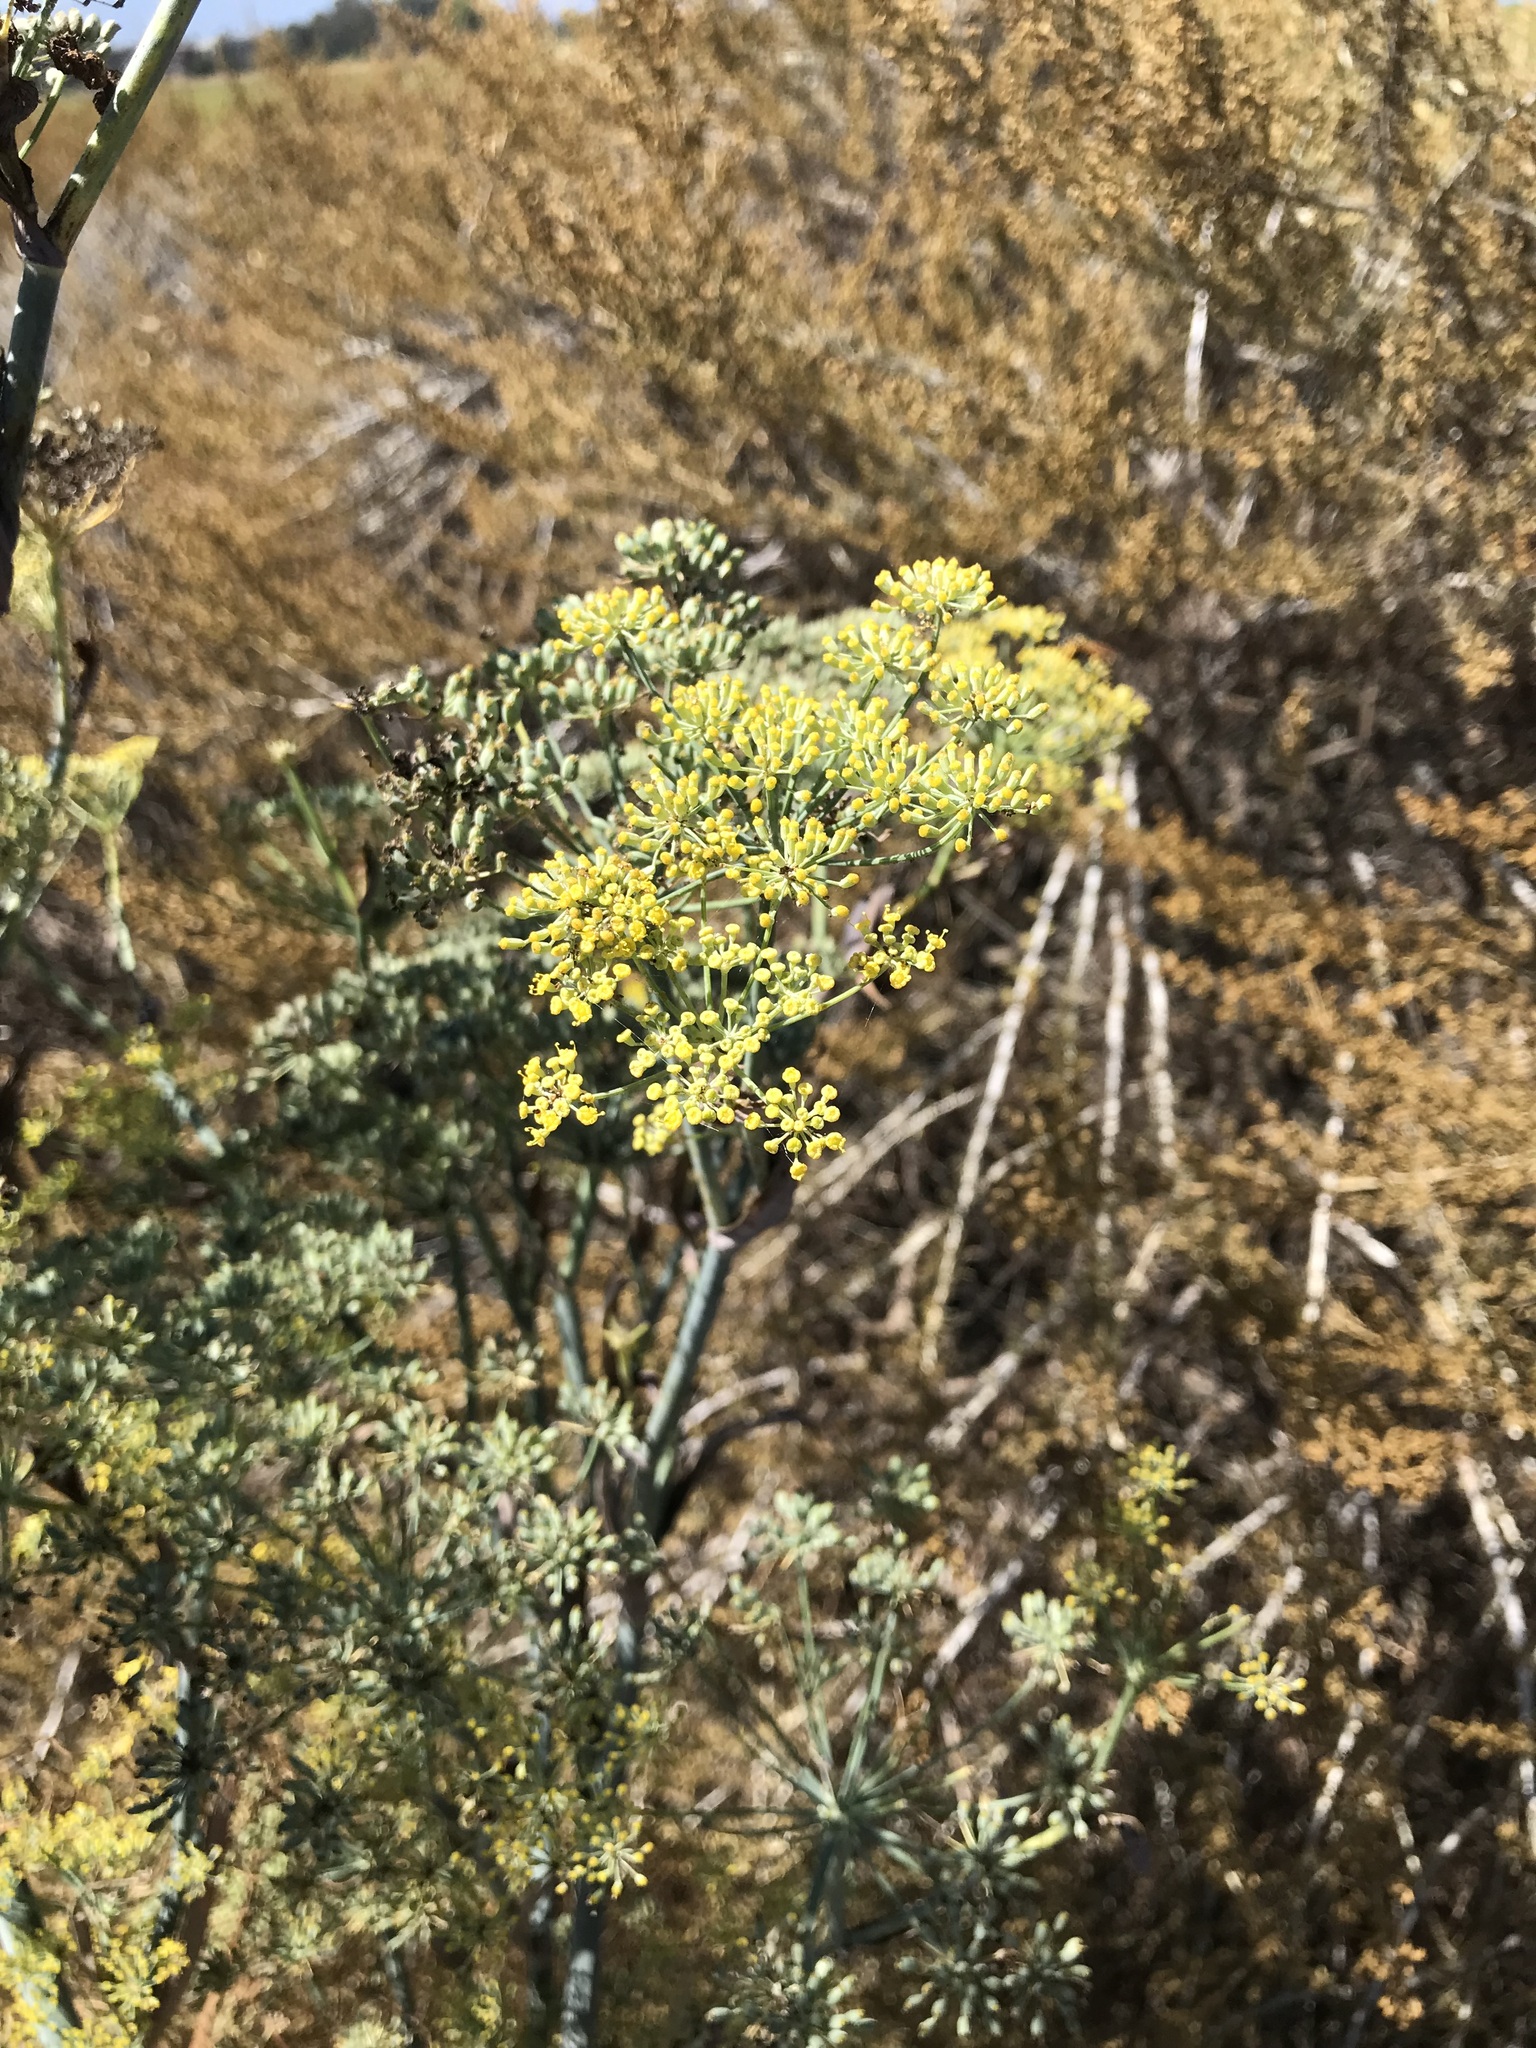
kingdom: Plantae
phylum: Tracheophyta
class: Magnoliopsida
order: Apiales
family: Apiaceae
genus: Foeniculum
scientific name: Foeniculum vulgare
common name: Fennel
